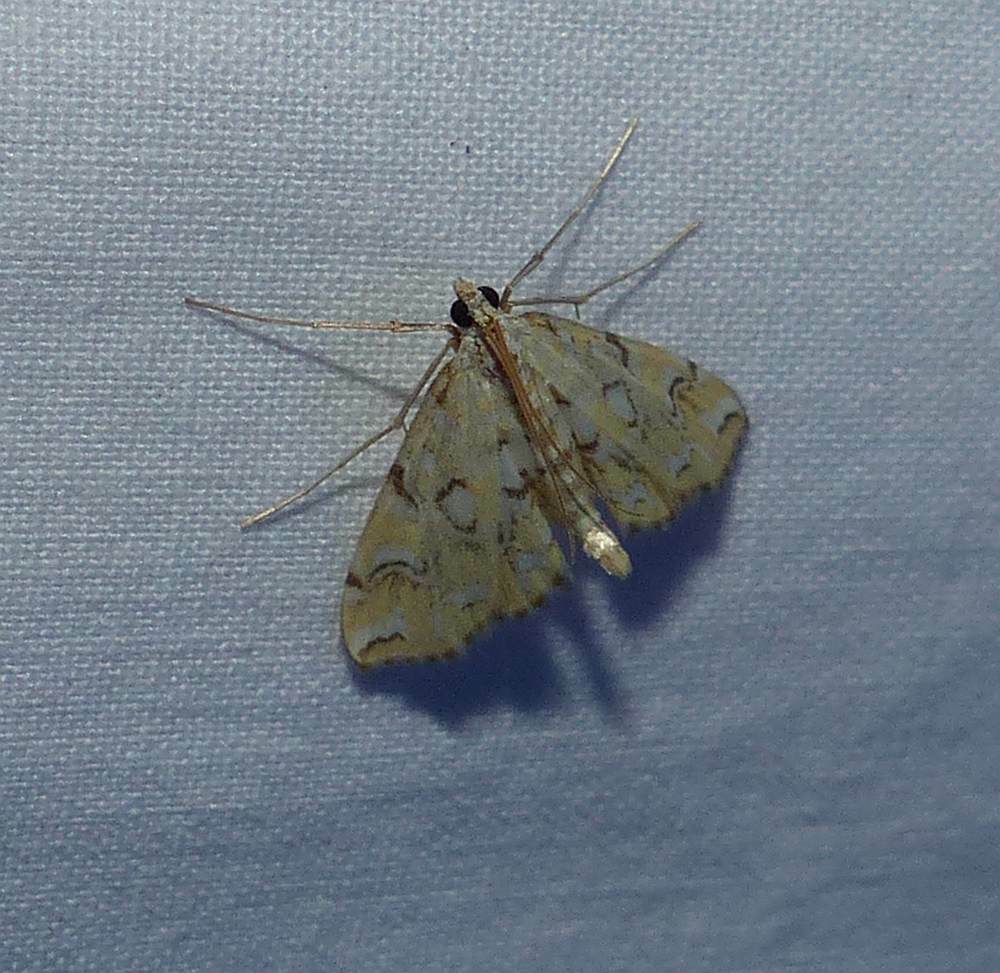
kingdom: Animalia
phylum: Arthropoda
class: Insecta
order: Lepidoptera
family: Crambidae
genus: Elophila
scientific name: Elophila icciusalis
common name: Pondside pyralid moth
